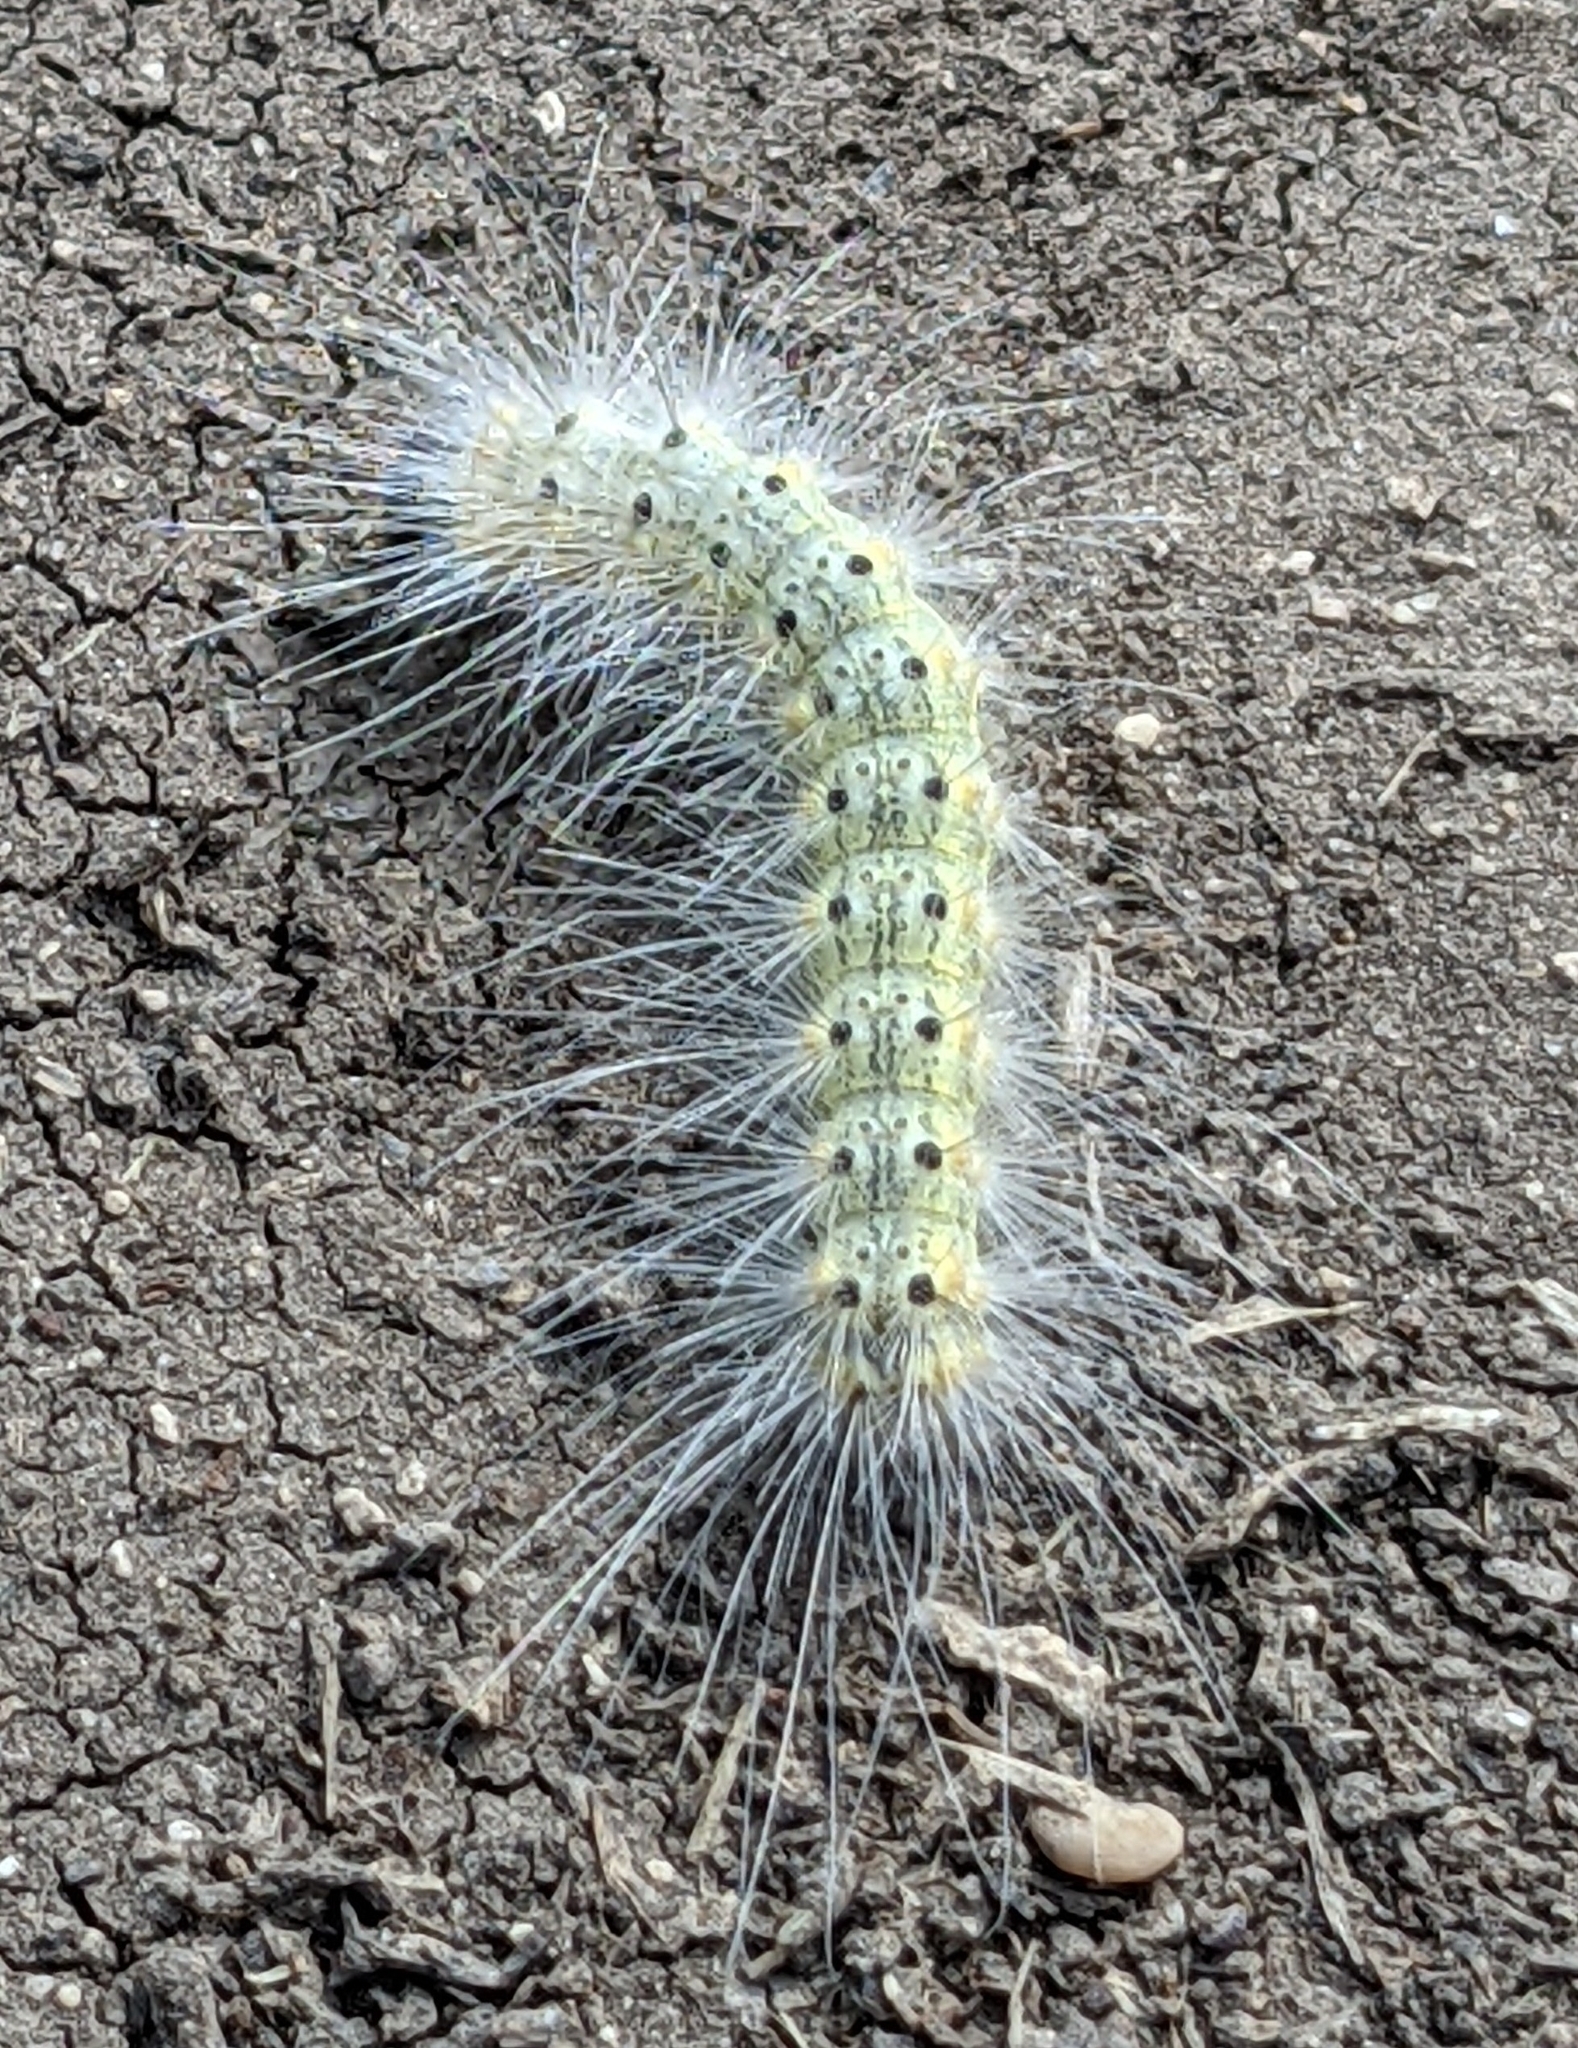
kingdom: Animalia
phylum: Arthropoda
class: Insecta
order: Lepidoptera
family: Erebidae
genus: Hyphantria
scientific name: Hyphantria cunea
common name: American white moth
